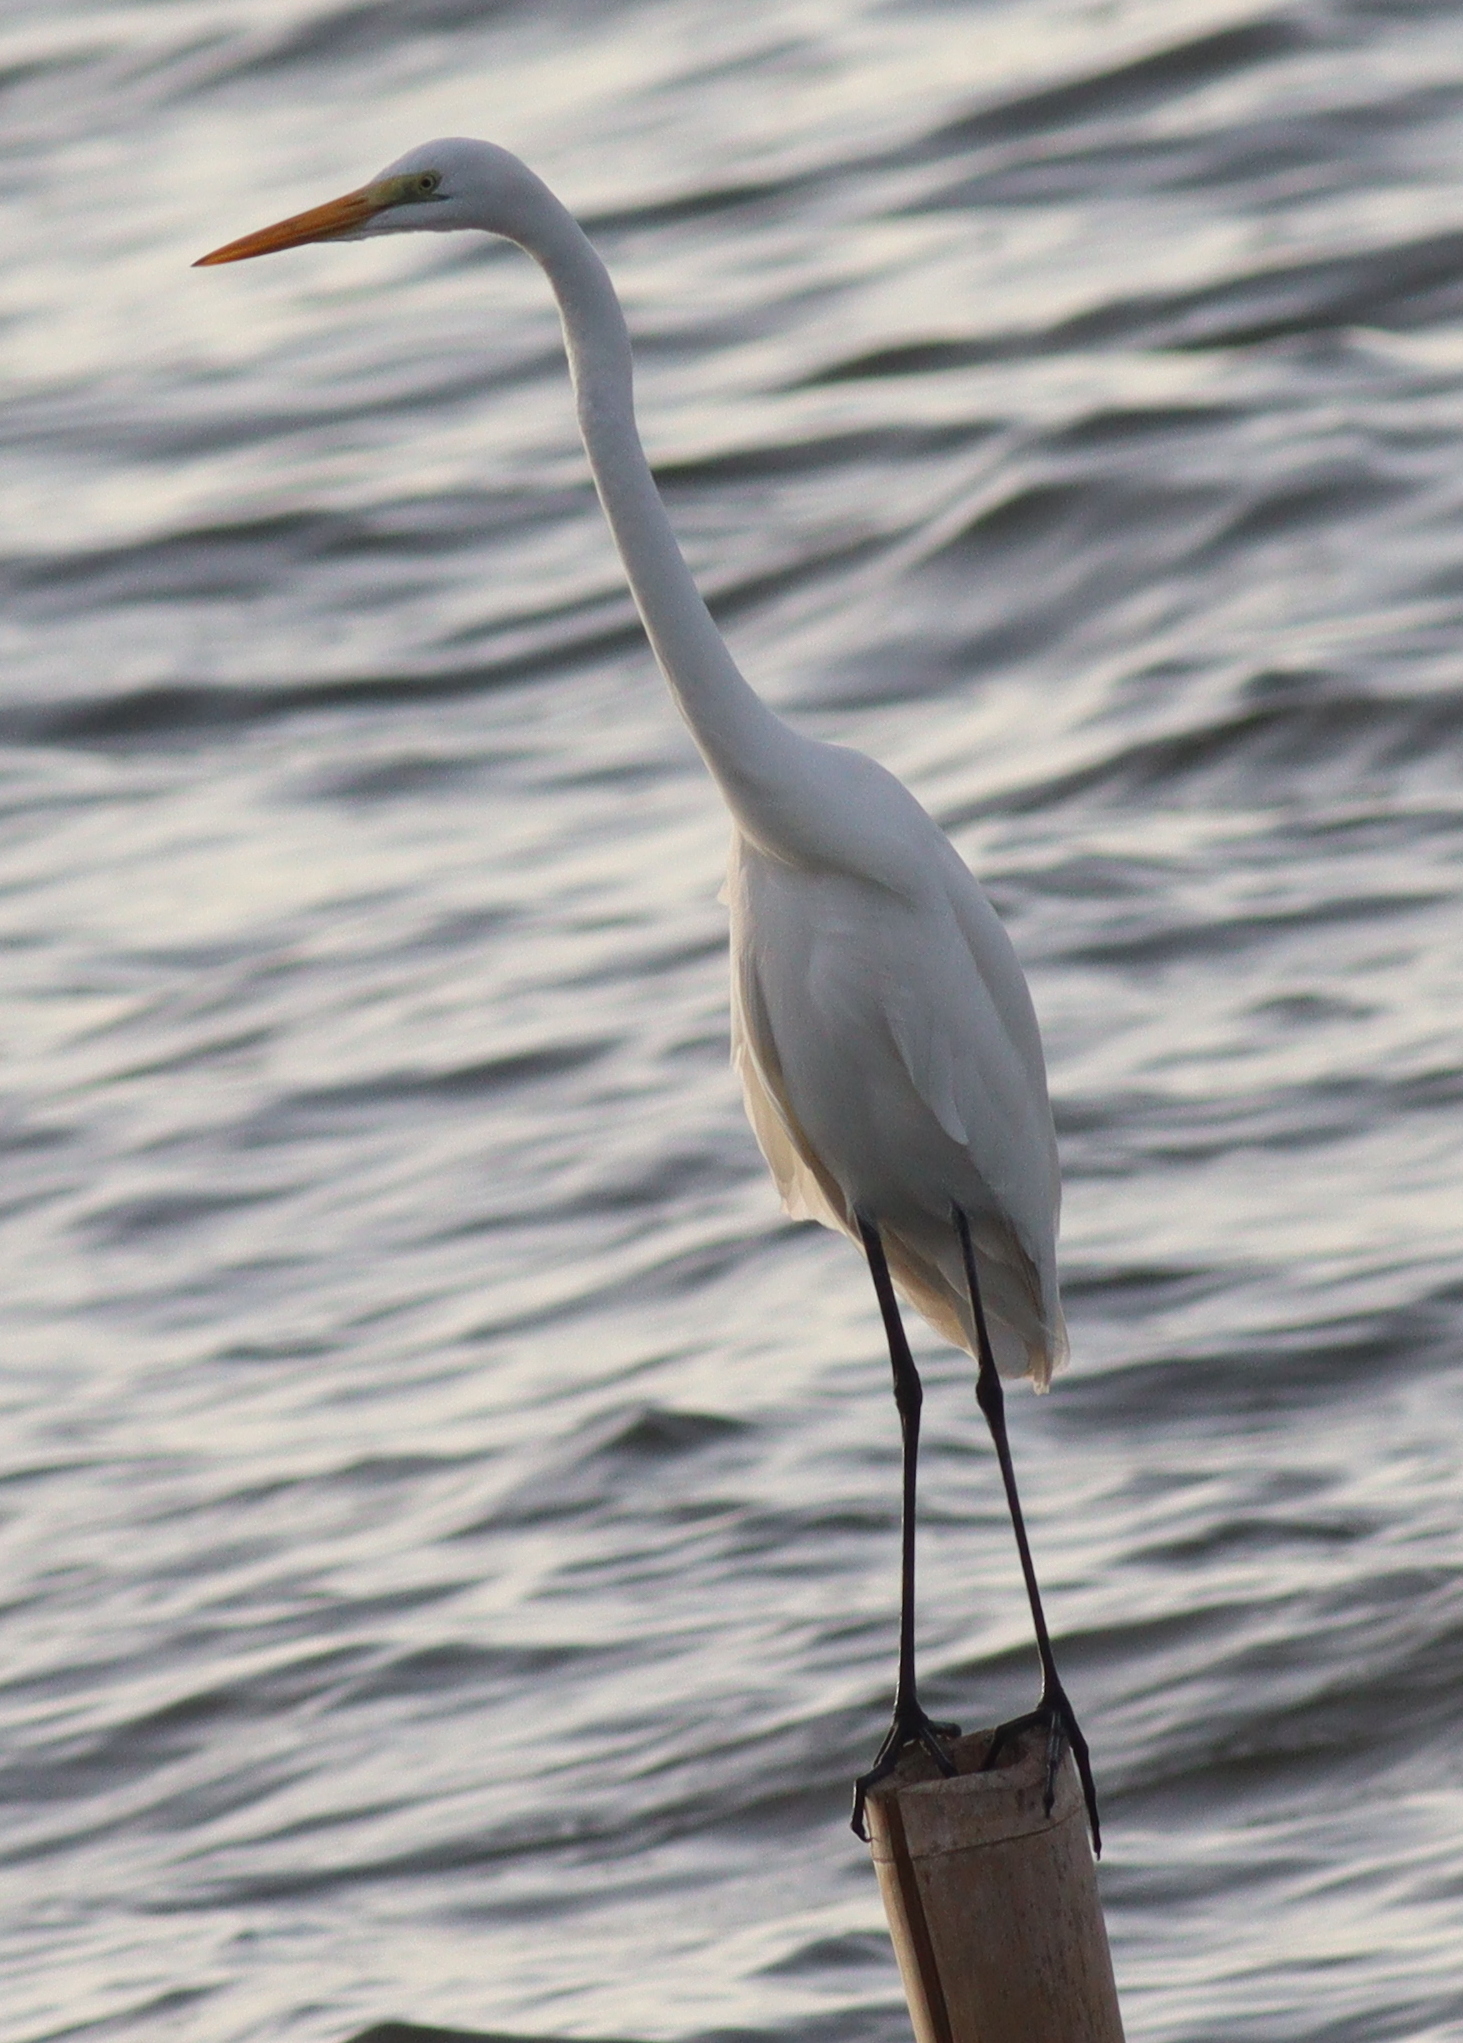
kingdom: Animalia
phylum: Chordata
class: Aves
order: Pelecaniformes
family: Ardeidae
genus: Ardea
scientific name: Ardea alba
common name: Great egret
